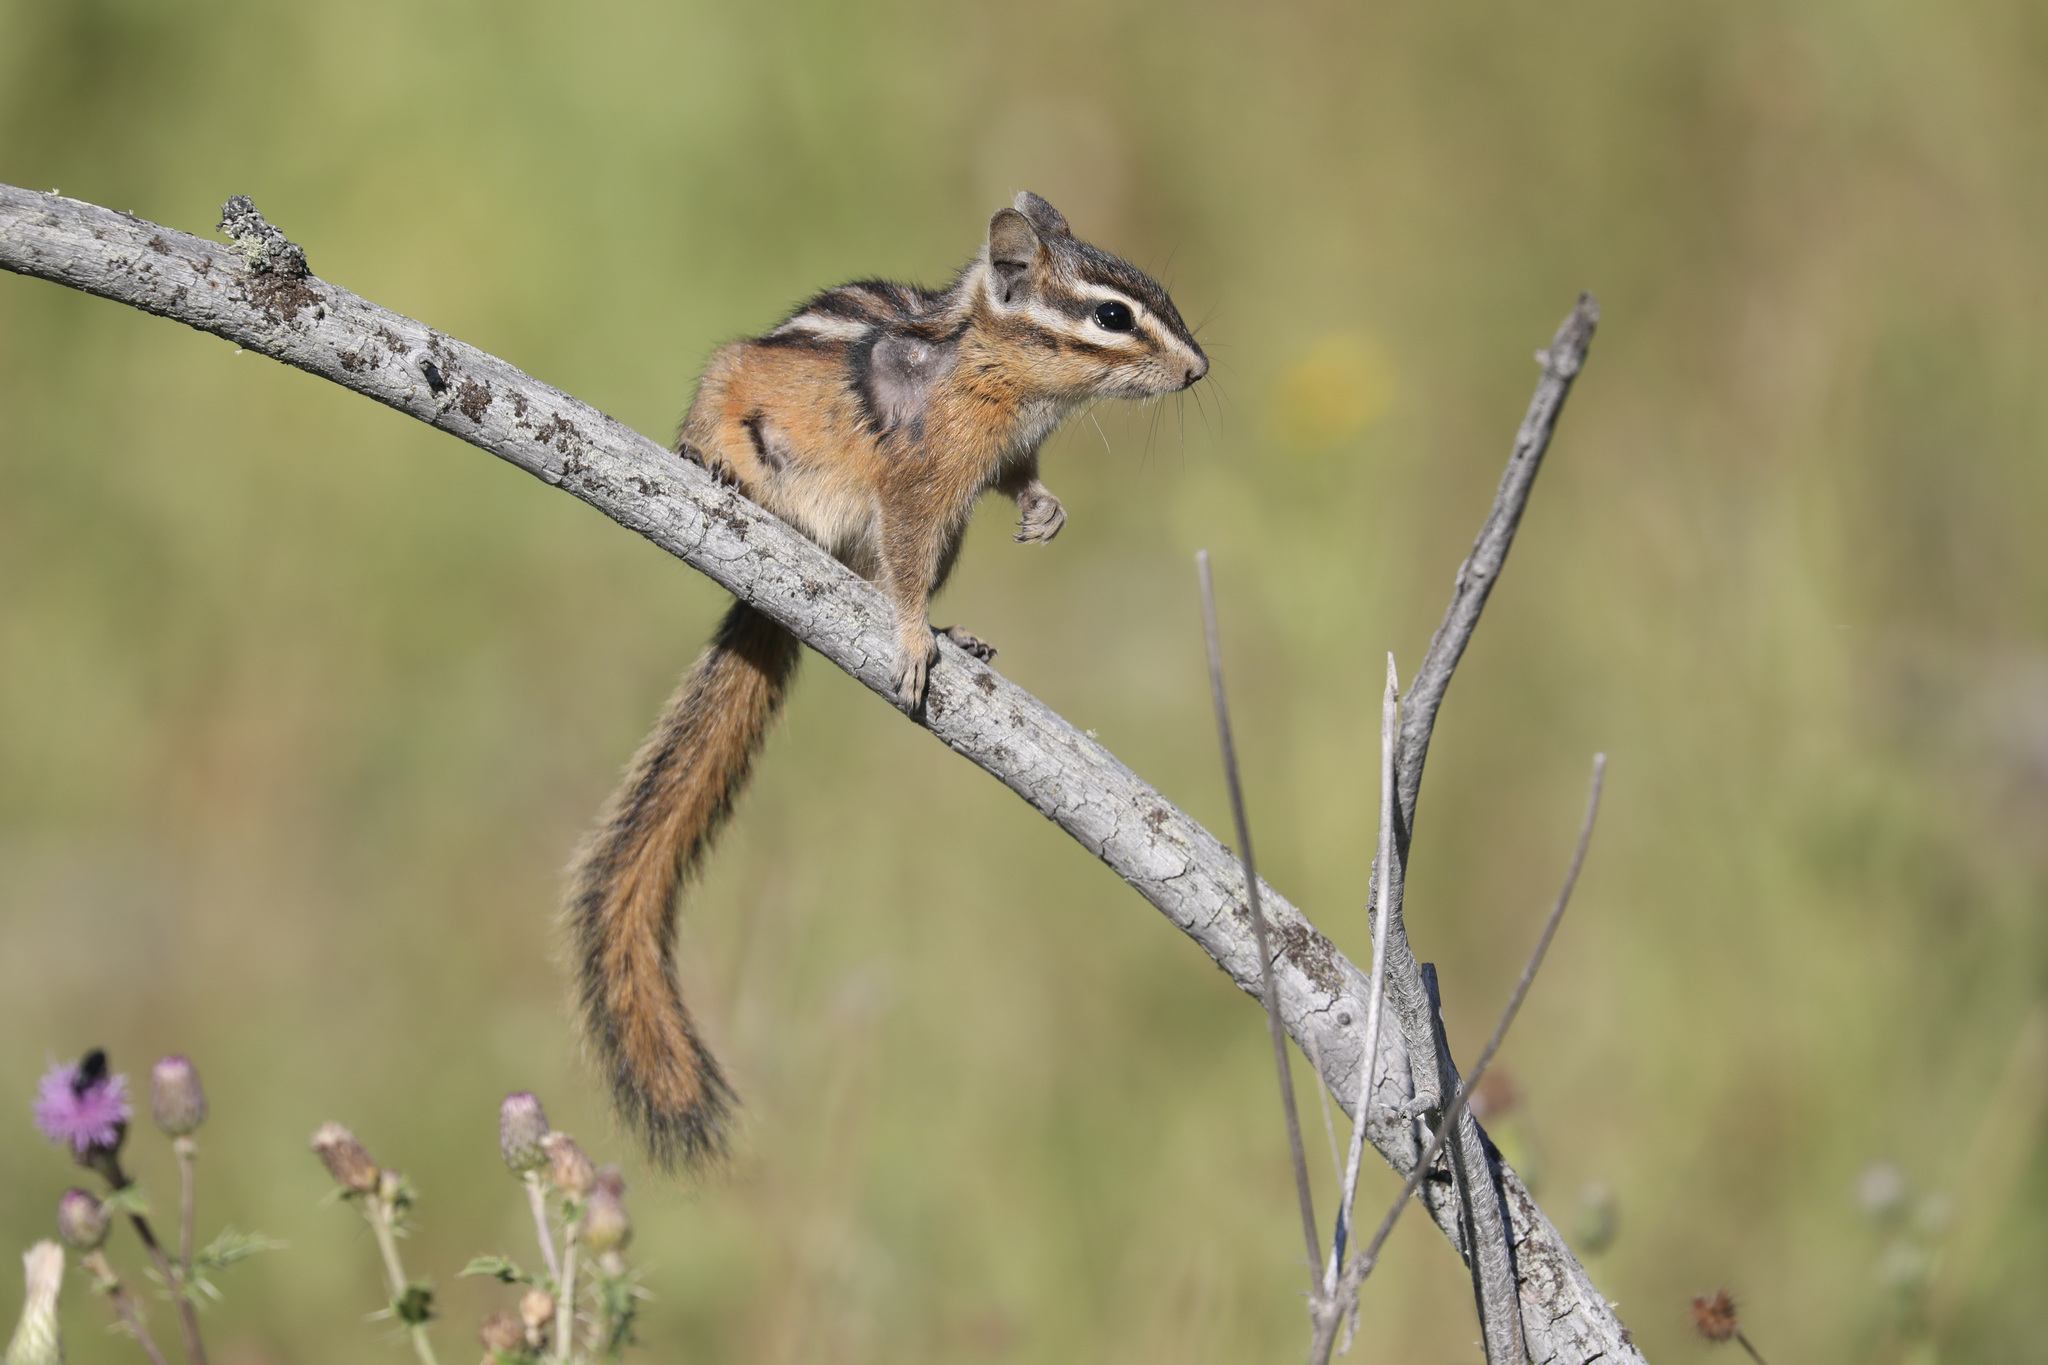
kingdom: Animalia
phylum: Chordata
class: Mammalia
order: Rodentia
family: Sciuridae
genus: Tamias
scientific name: Tamias amoenus
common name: Yellow-pine chipmunk
